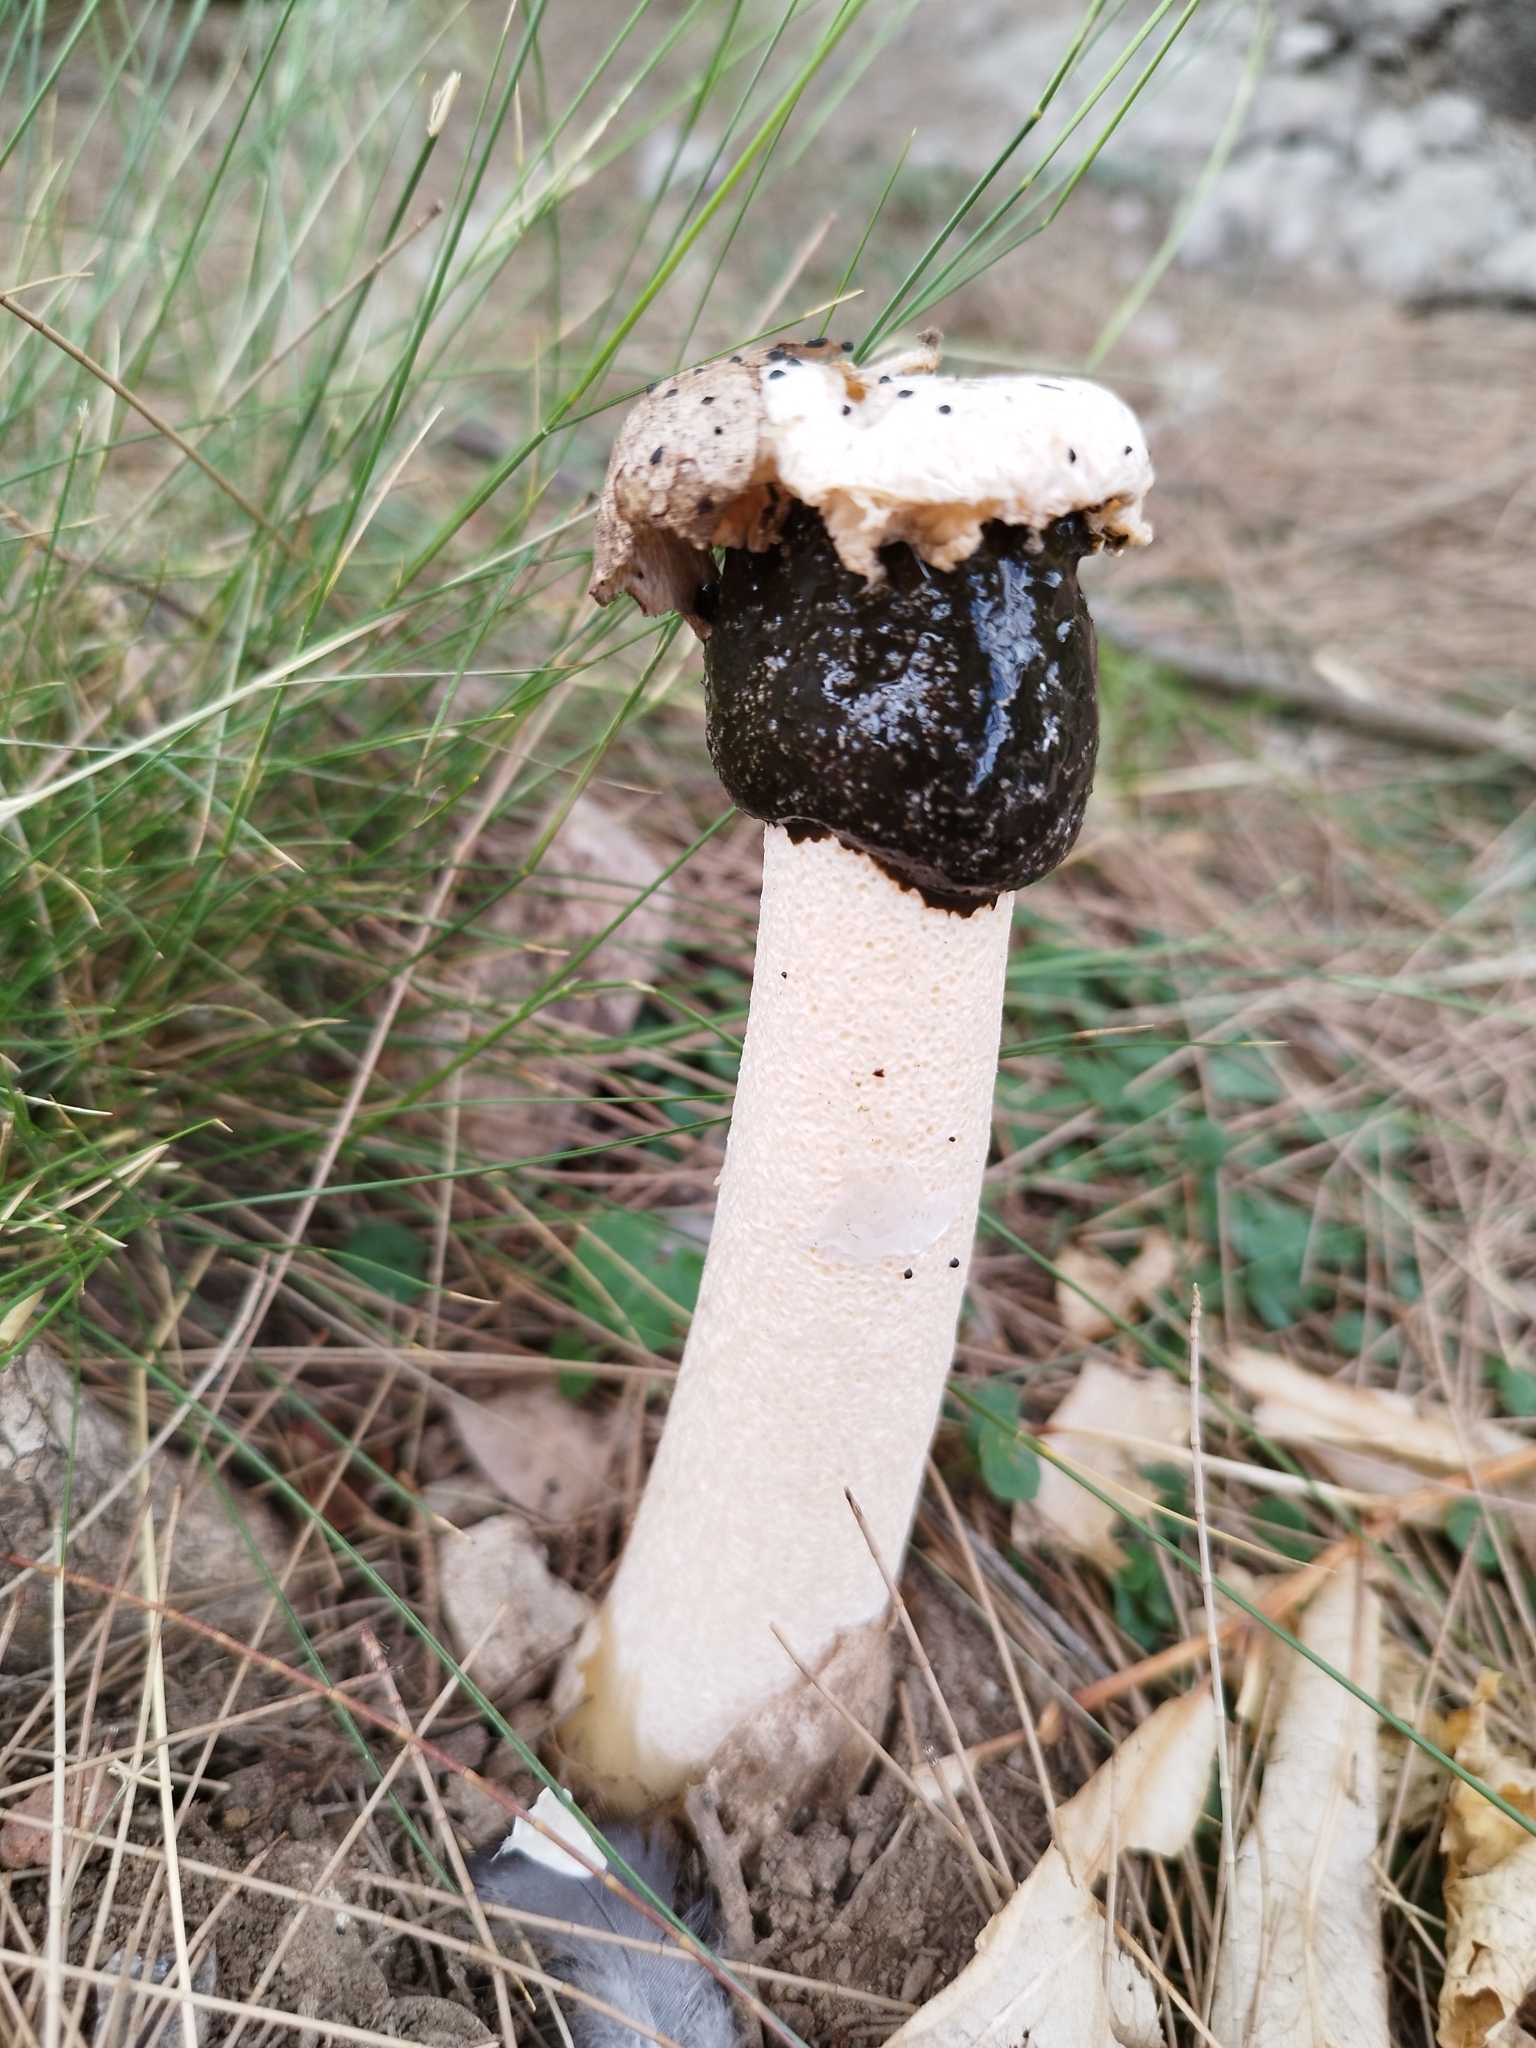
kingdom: Fungi
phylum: Basidiomycota
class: Agaricomycetes
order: Phallales
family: Phallaceae
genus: Itajahya
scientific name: Itajahya galericulata
